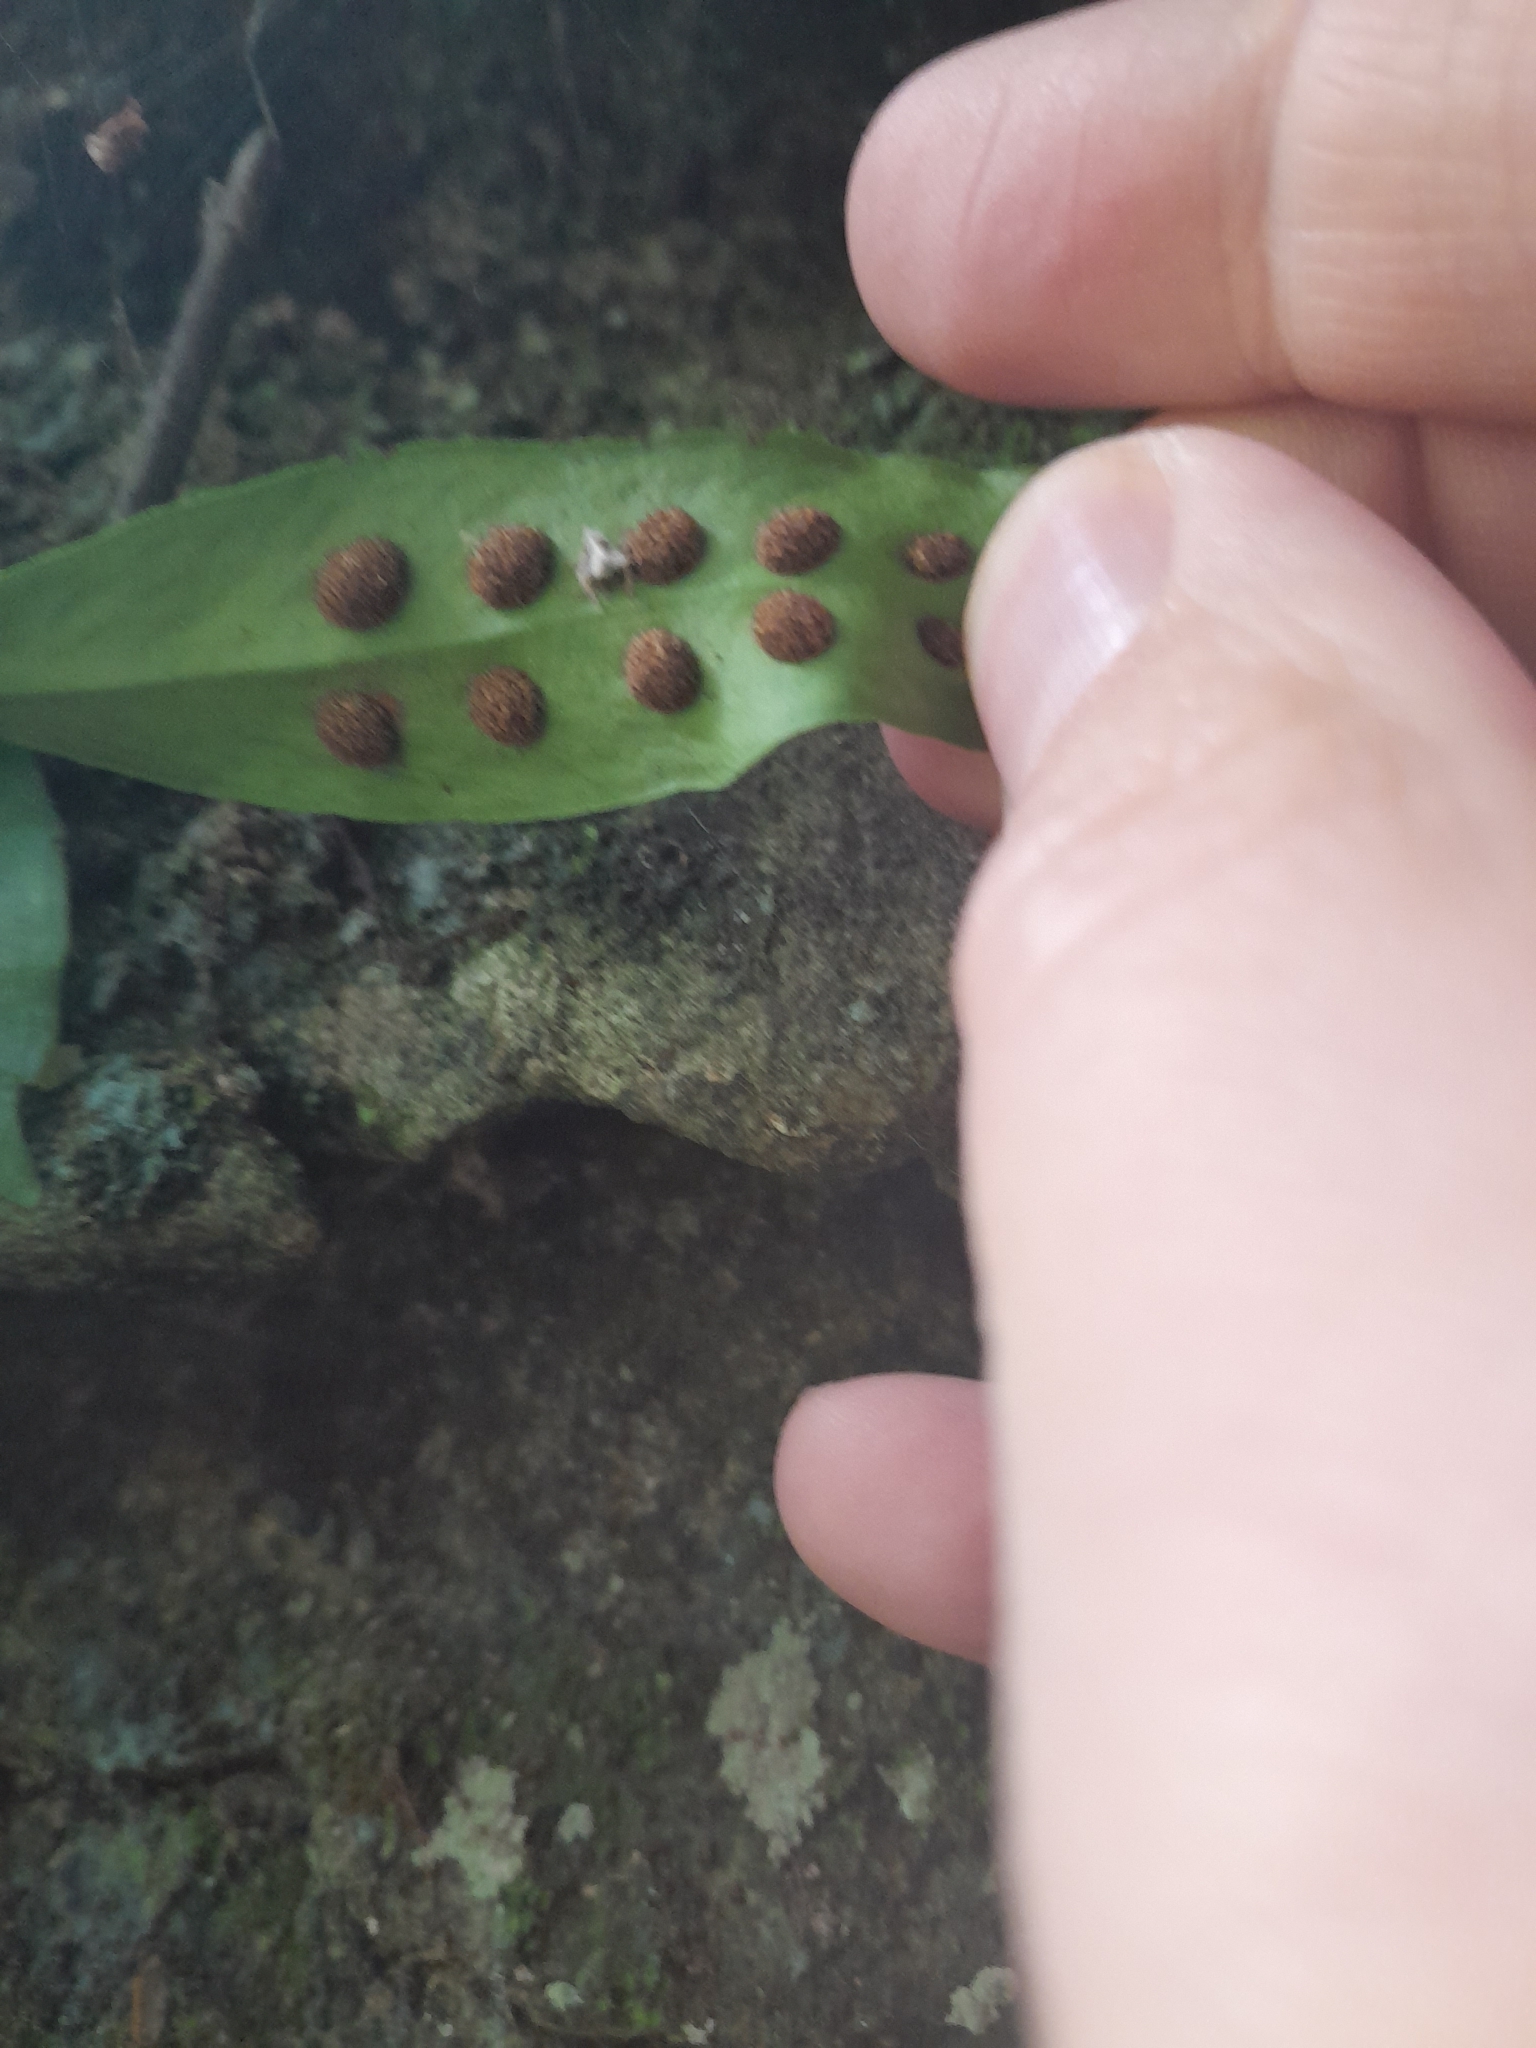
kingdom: Plantae
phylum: Tracheophyta
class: Polypodiopsida
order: Polypodiales
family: Polypodiaceae
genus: Loxogramme
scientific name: Loxogramme dictyopteris
